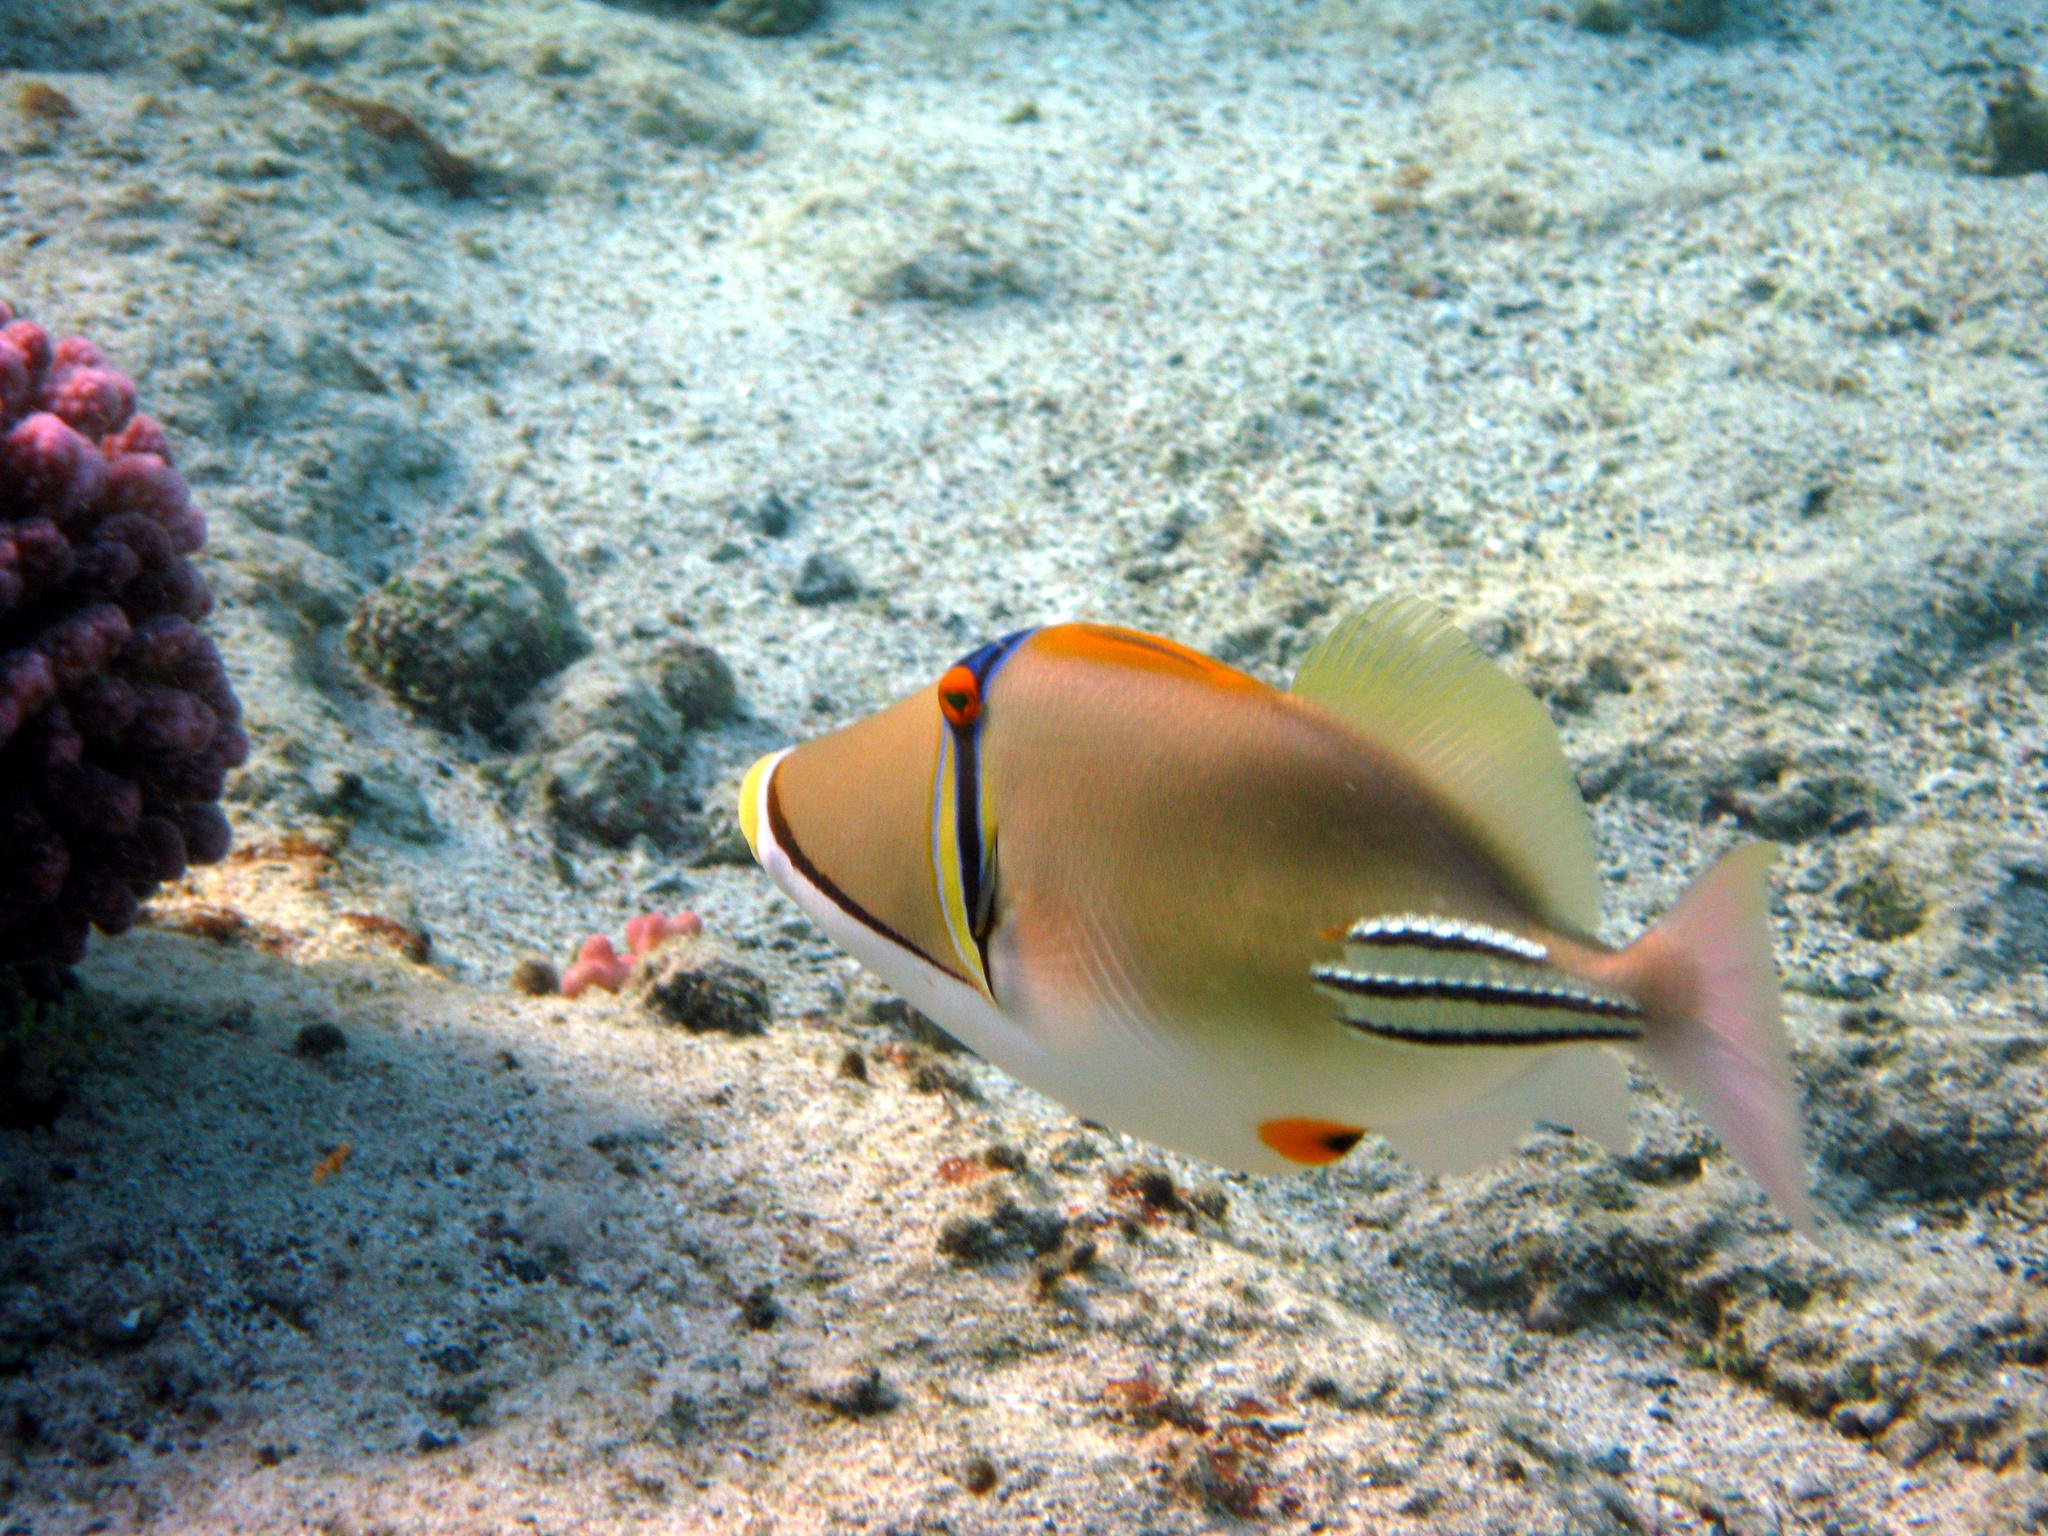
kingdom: Animalia
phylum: Chordata
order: Tetraodontiformes
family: Balistidae
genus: Rhinecanthus
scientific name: Rhinecanthus assasi
